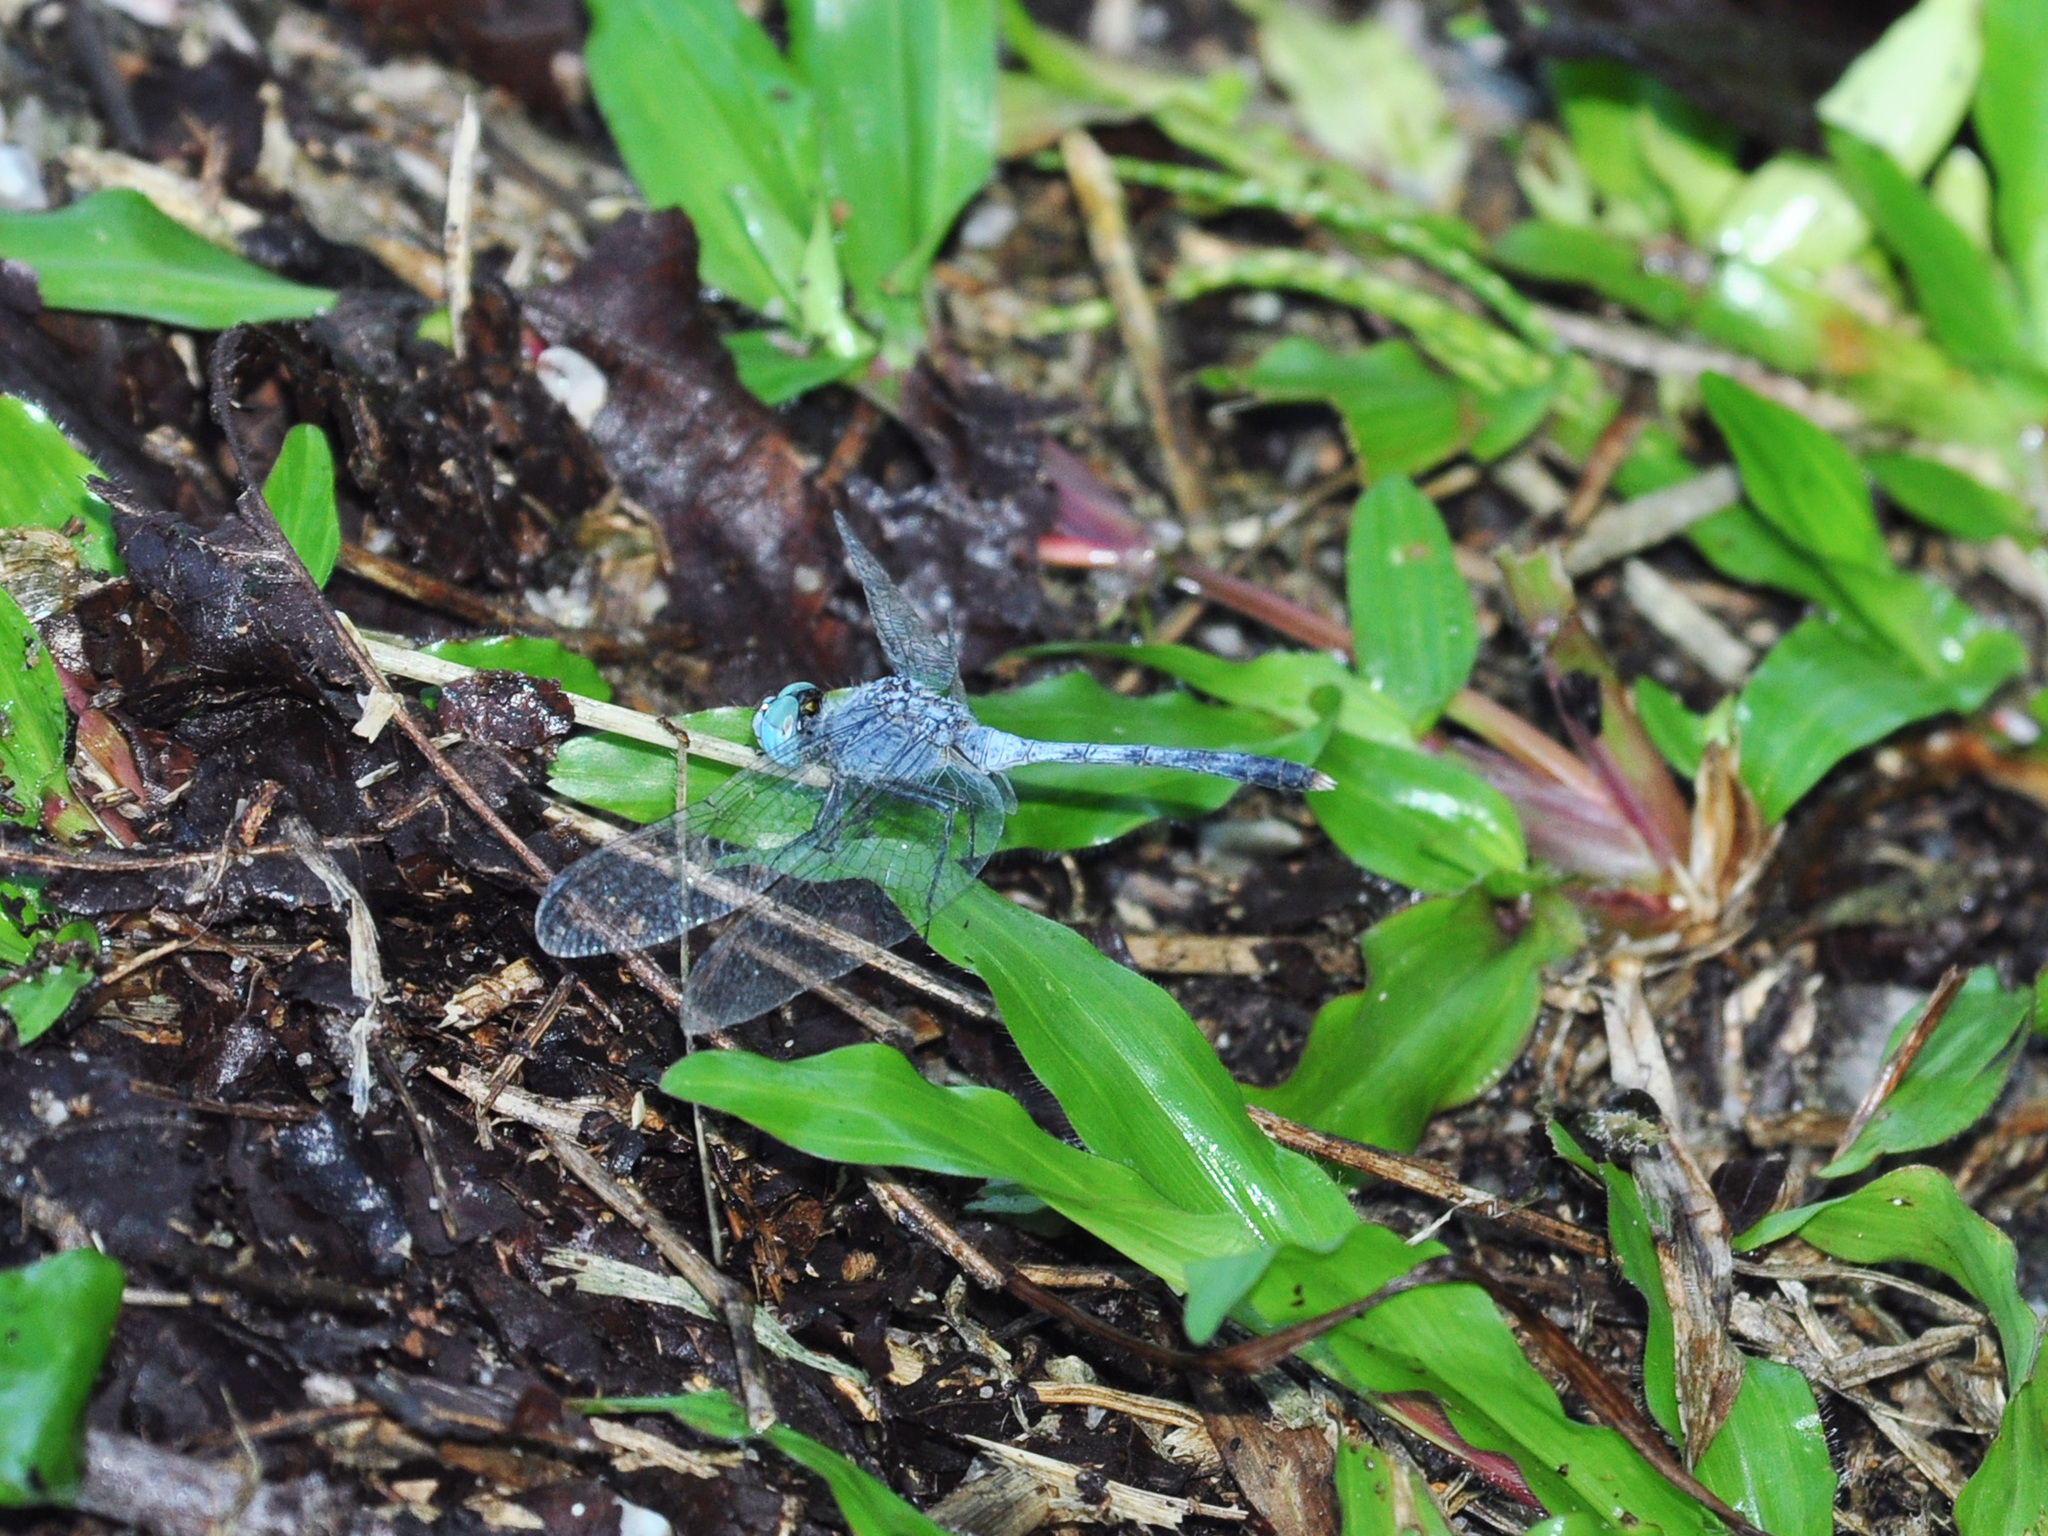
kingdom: Animalia
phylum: Arthropoda
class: Insecta
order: Odonata
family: Libellulidae
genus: Diplacodes
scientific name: Diplacodes trivialis
